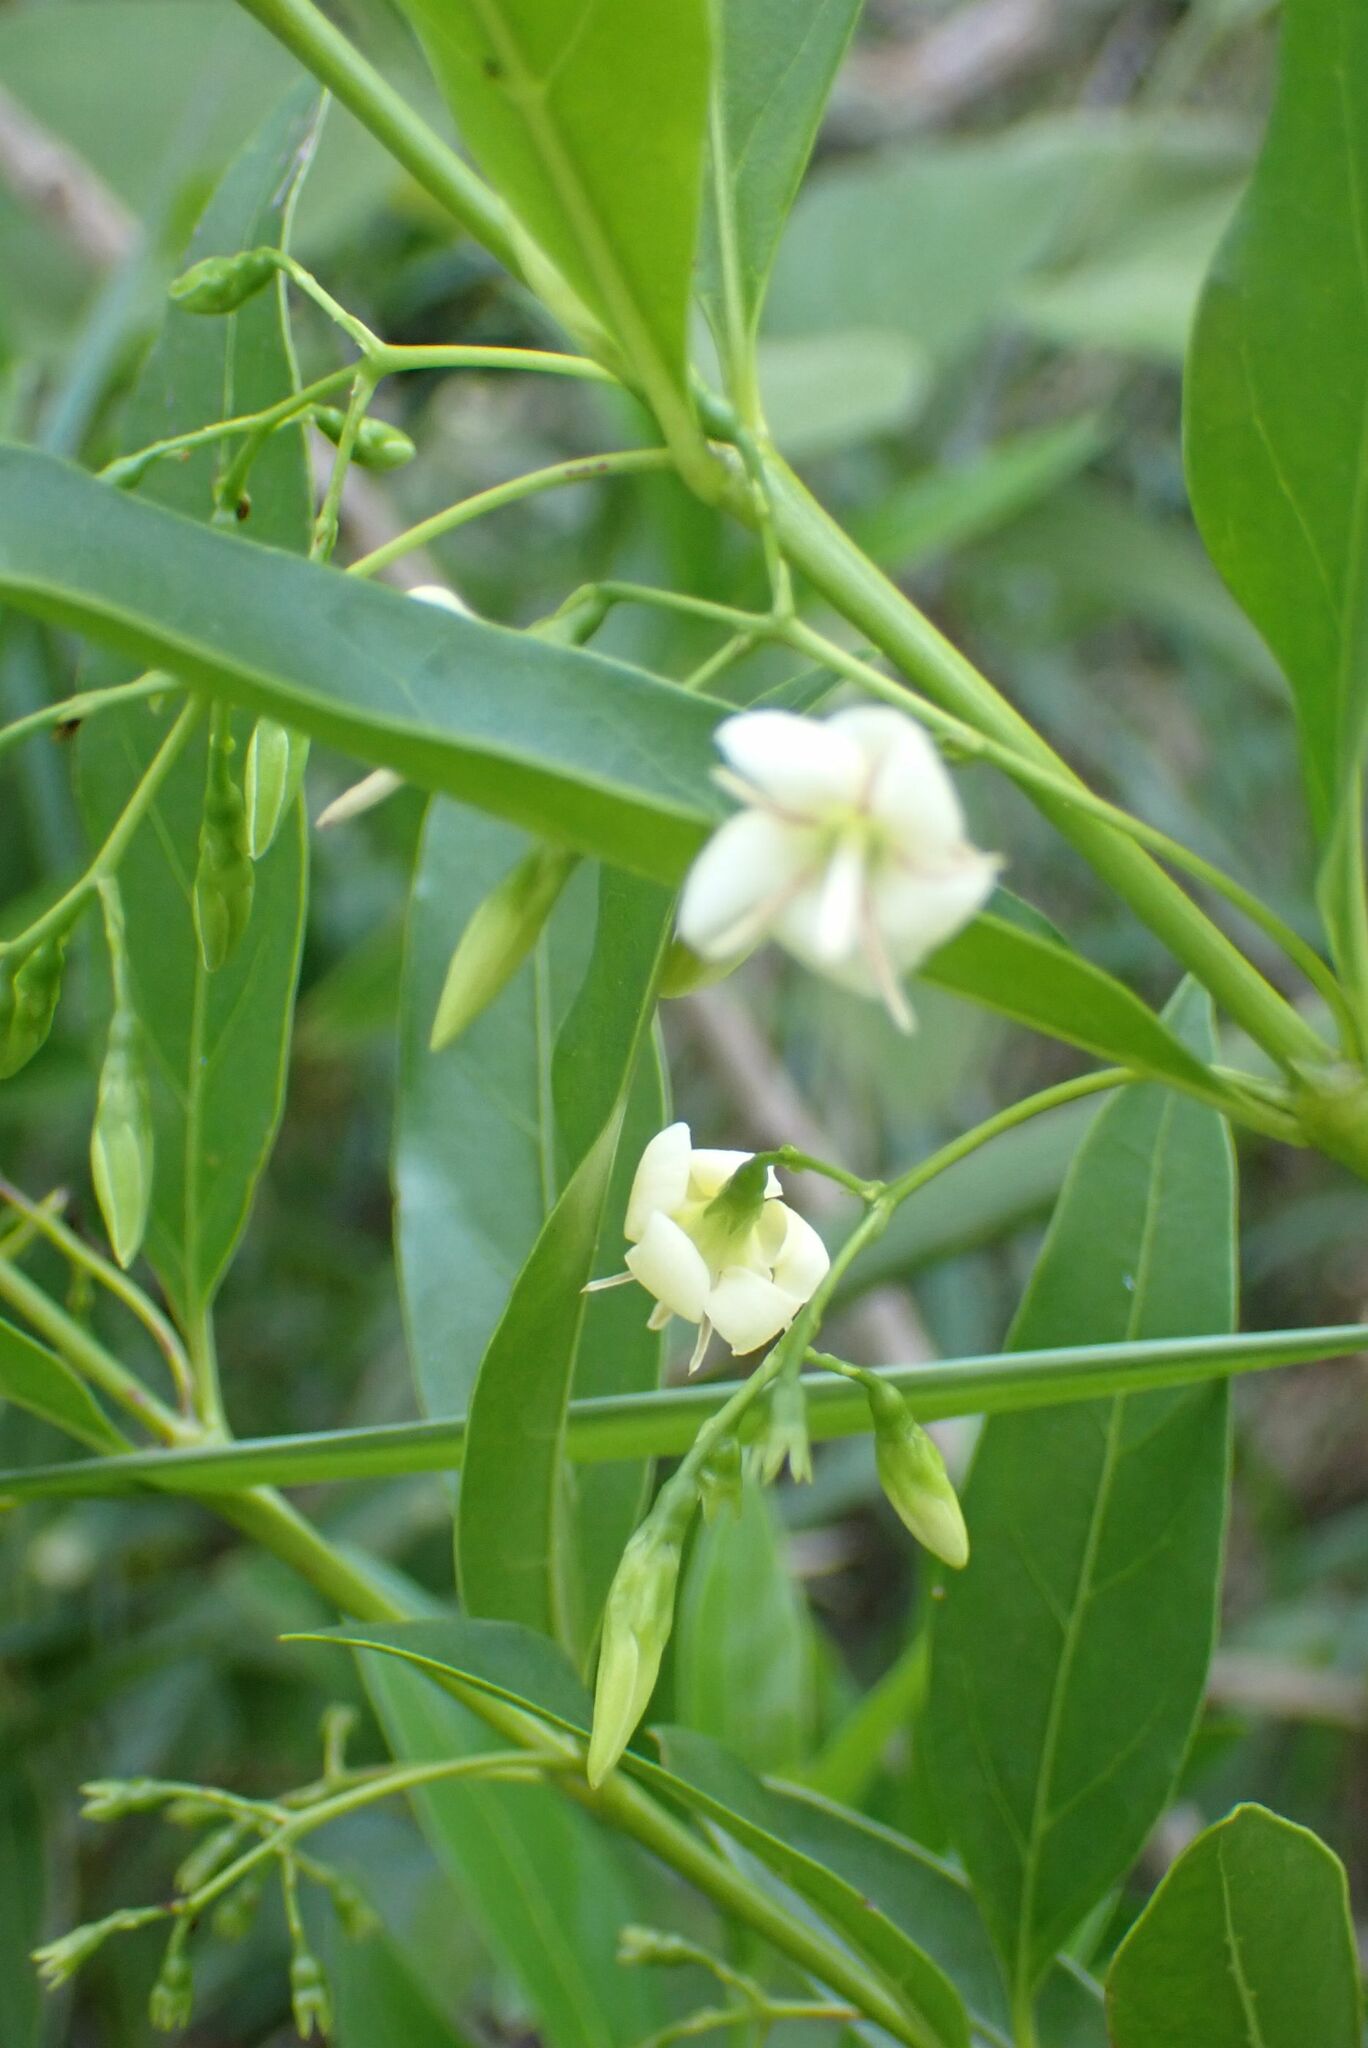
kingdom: Plantae
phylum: Tracheophyta
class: Magnoliopsida
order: Gentianales
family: Rubiaceae
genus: Kraussia
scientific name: Kraussia floribunda
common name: Rhino-coffee
